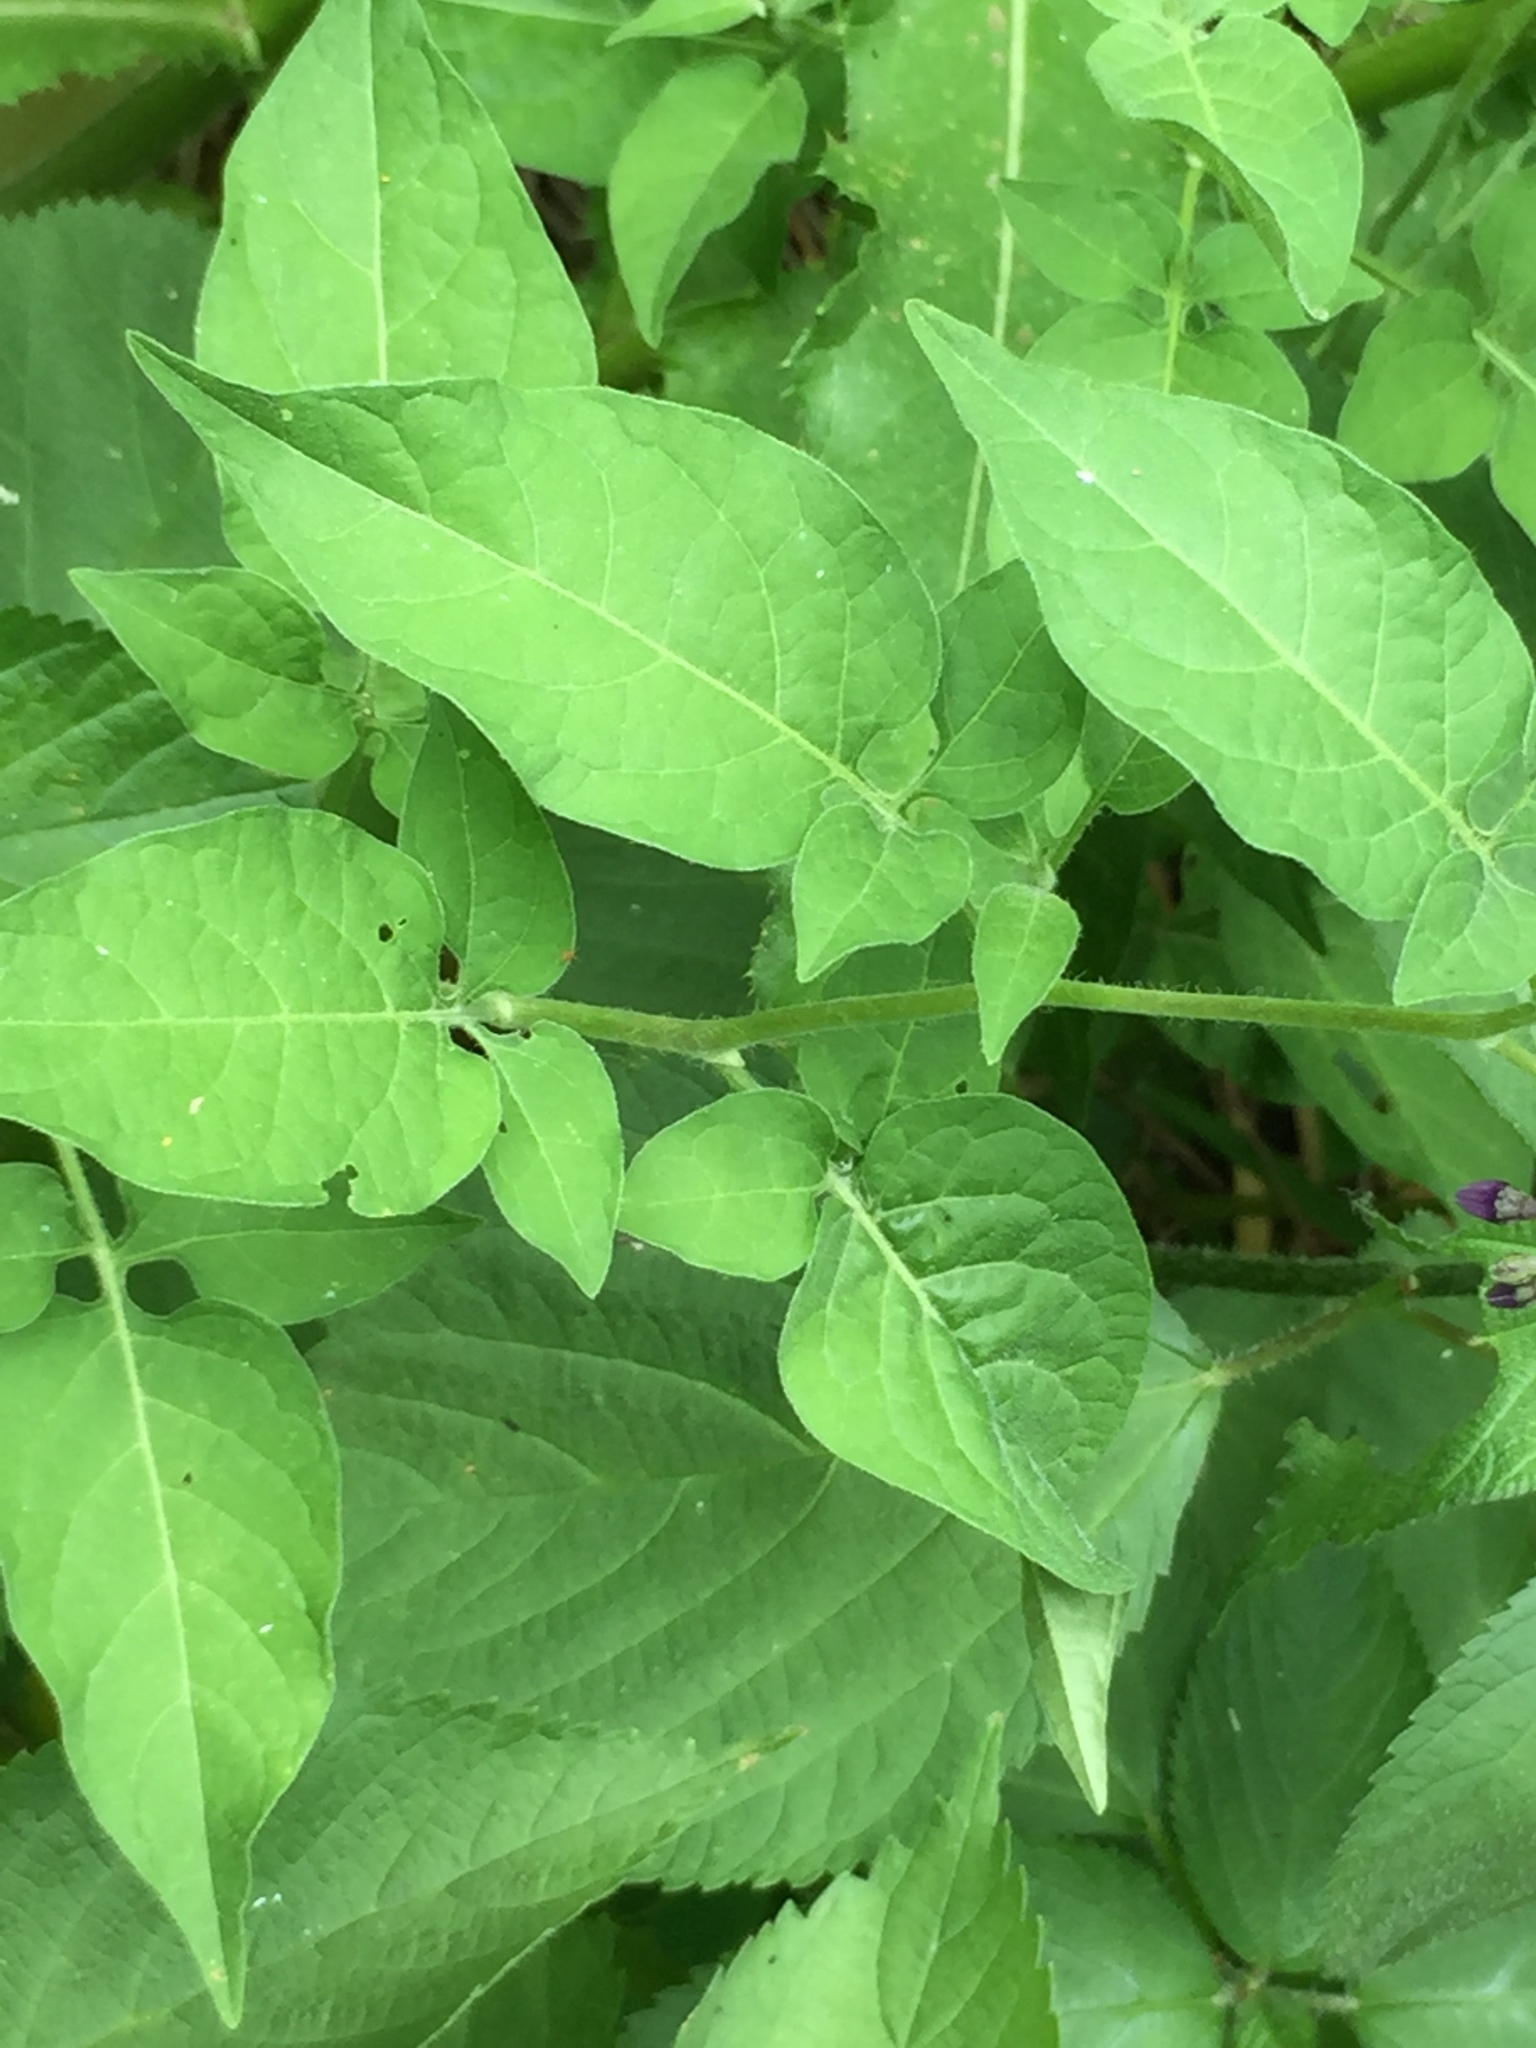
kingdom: Plantae
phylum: Tracheophyta
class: Magnoliopsida
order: Solanales
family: Solanaceae
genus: Solanum
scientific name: Solanum dulcamara
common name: Climbing nightshade
